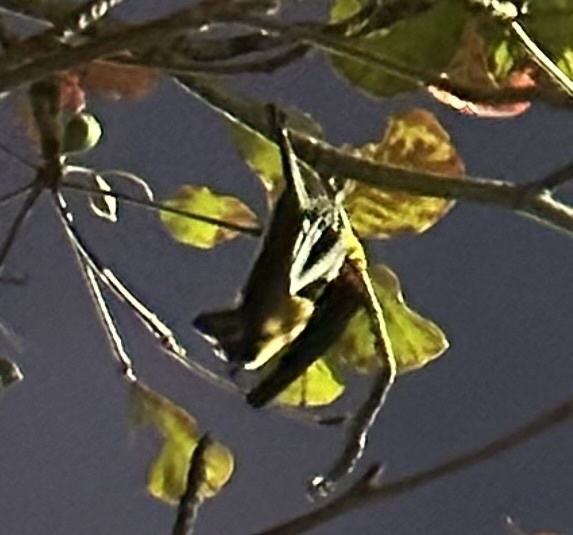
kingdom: Animalia
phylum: Chordata
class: Mammalia
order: Chiroptera
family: Pteropodidae
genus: Pteropus
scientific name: Pteropus conspicillatus
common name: Spectacled flying fox
